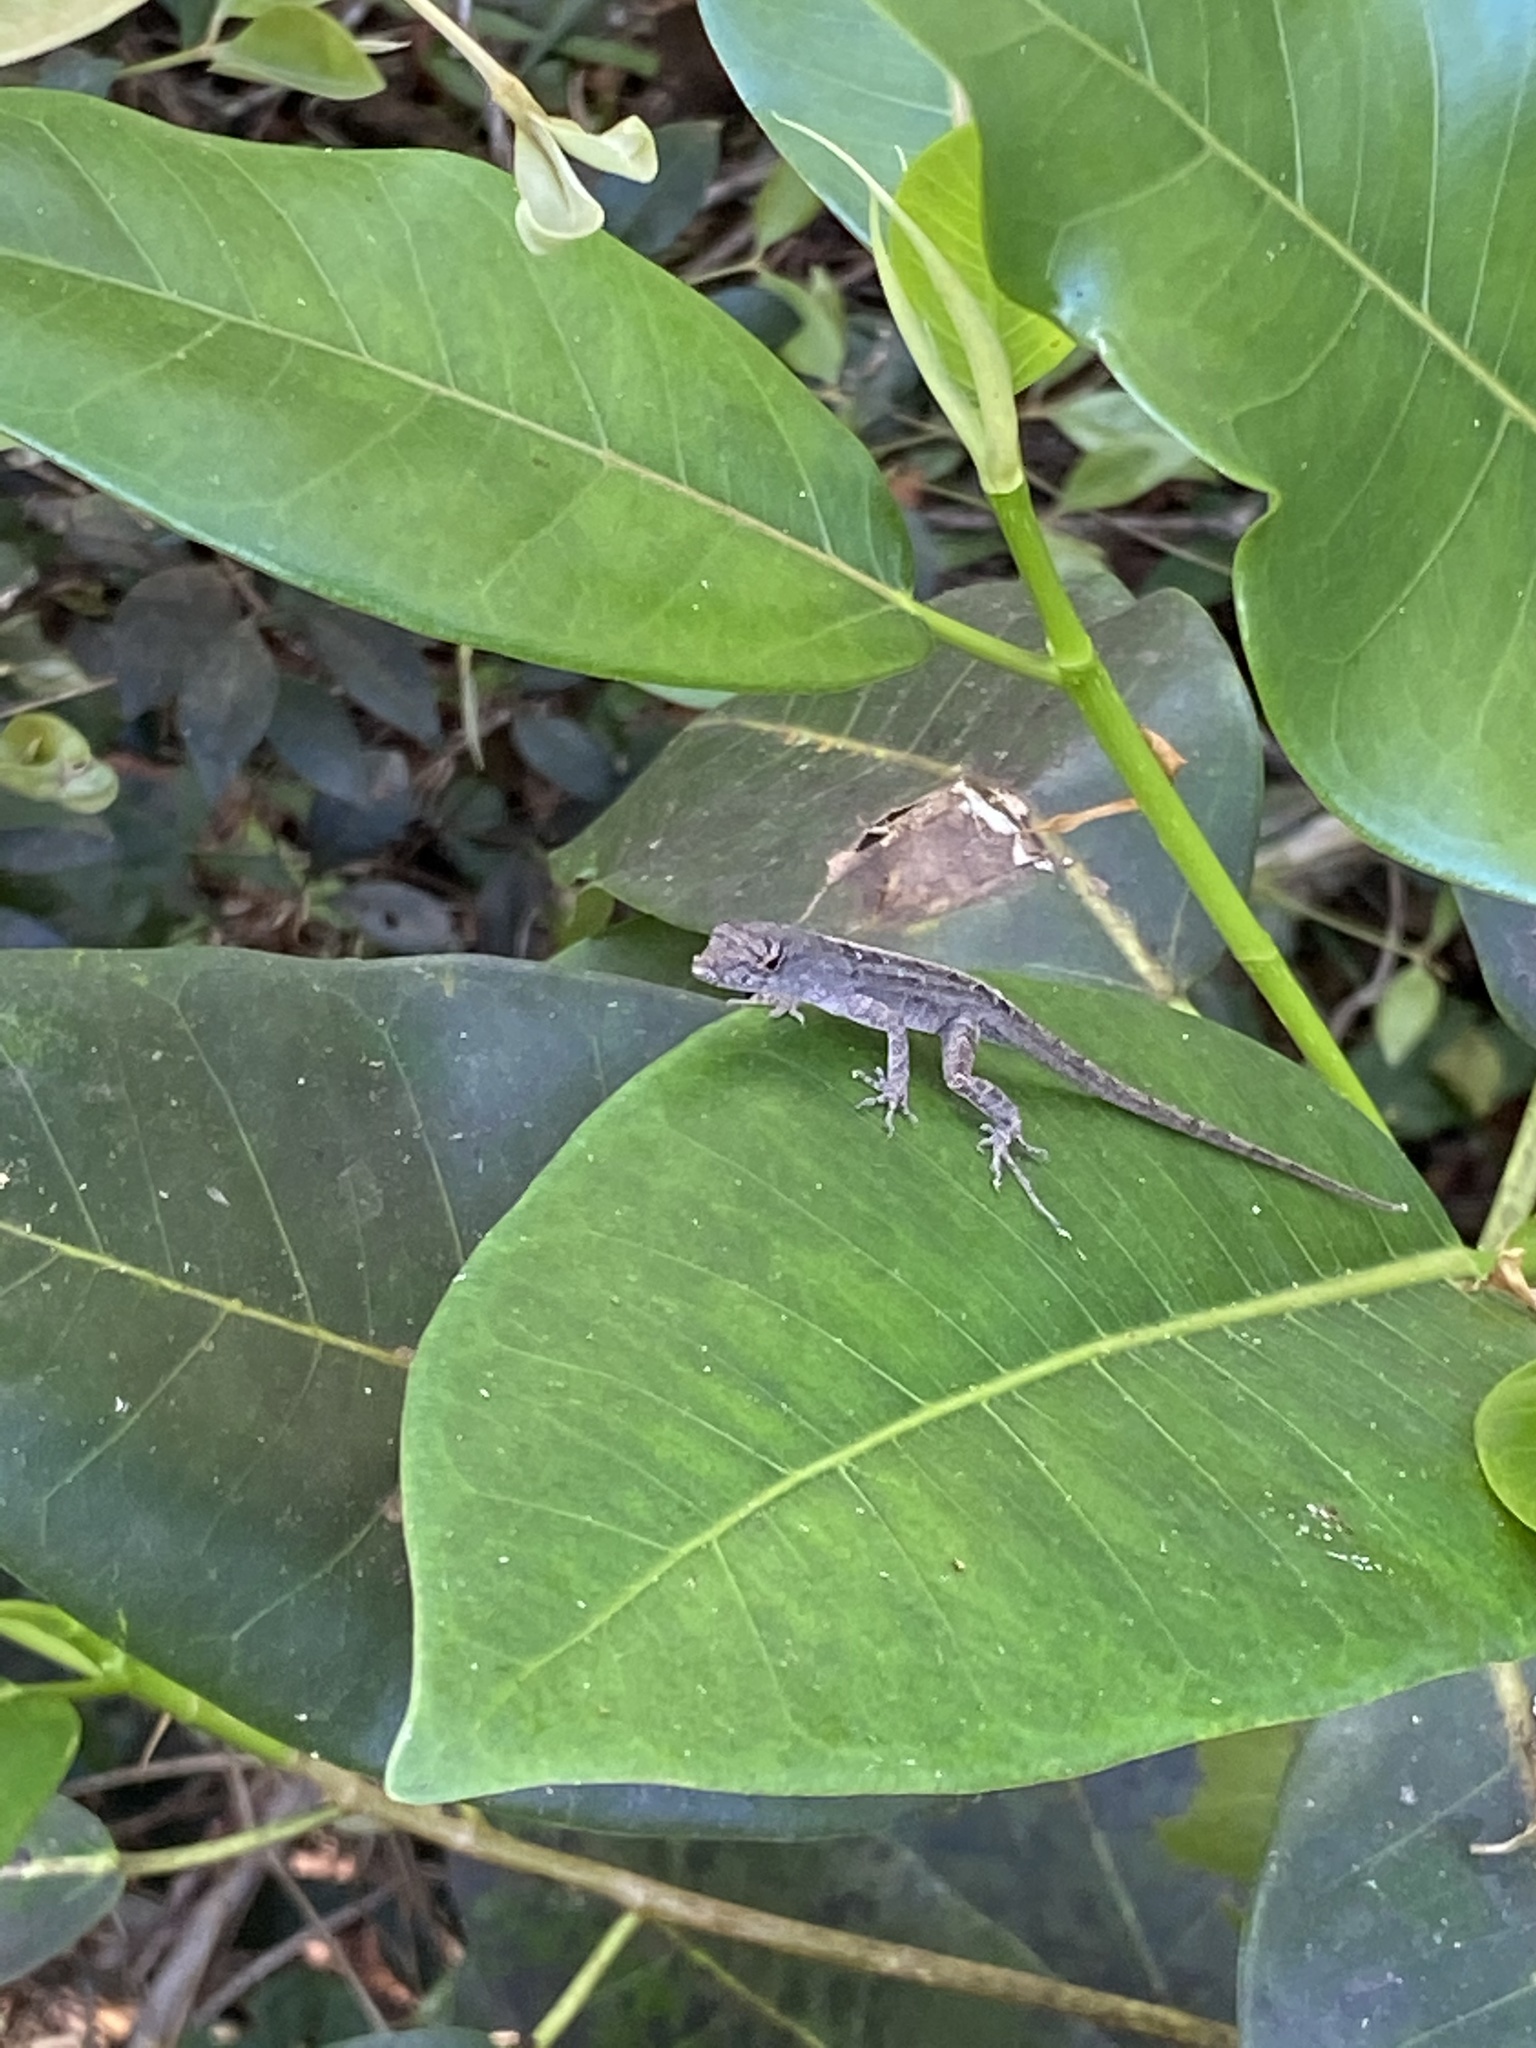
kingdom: Animalia
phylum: Chordata
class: Squamata
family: Dactyloidae
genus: Anolis
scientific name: Anolis sagrei
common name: Brown anole
